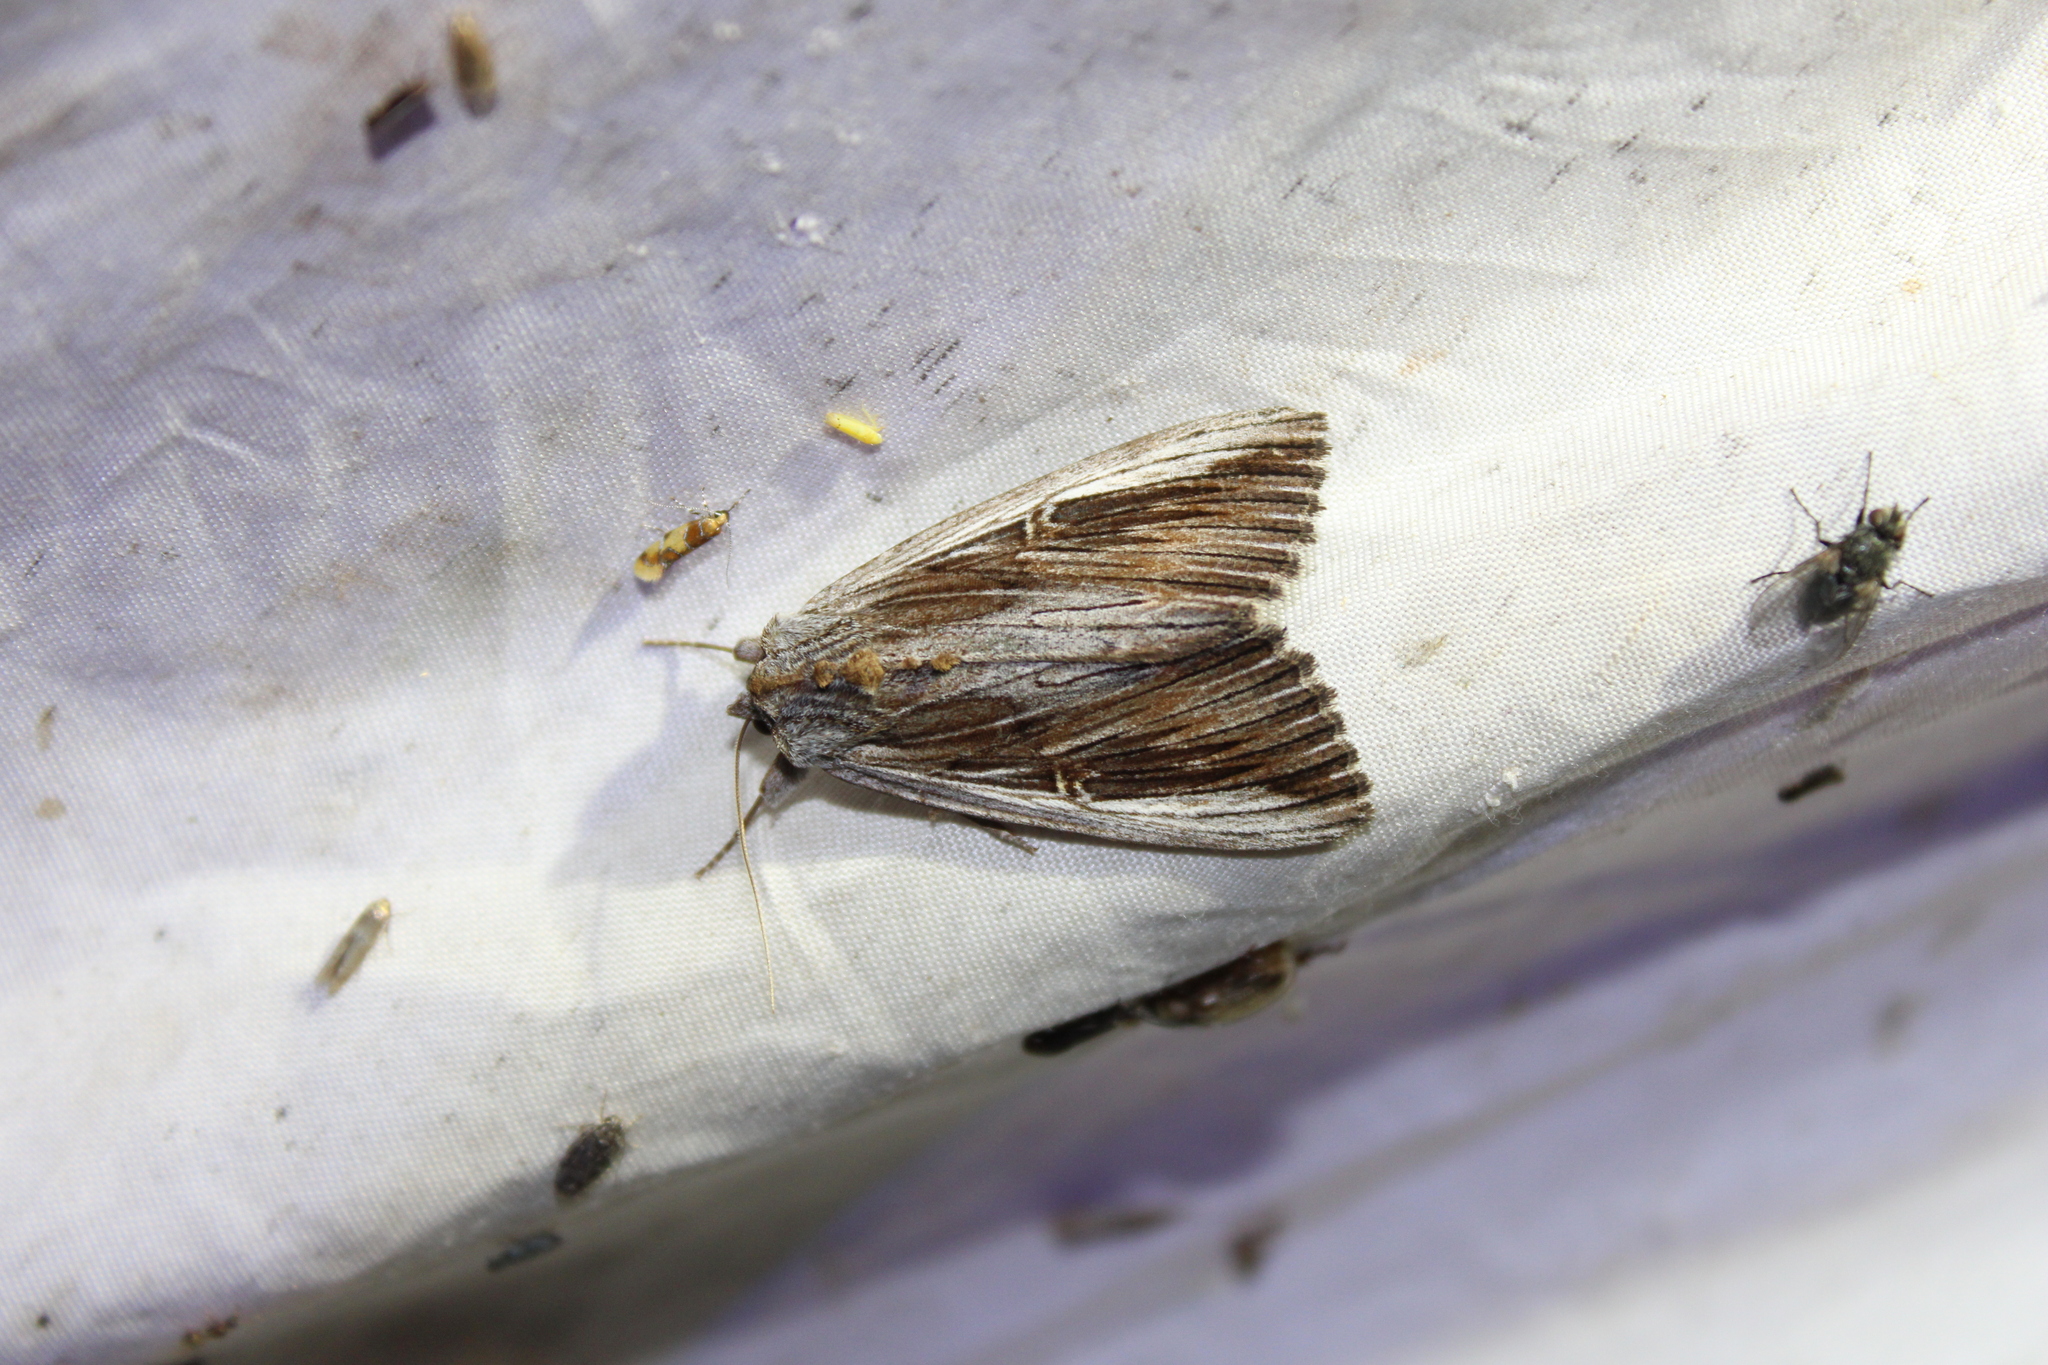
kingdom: Animalia
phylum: Arthropoda
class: Insecta
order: Lepidoptera
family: Erebidae
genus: Catocala
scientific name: Catocala herodias
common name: Pine barrens underwing
